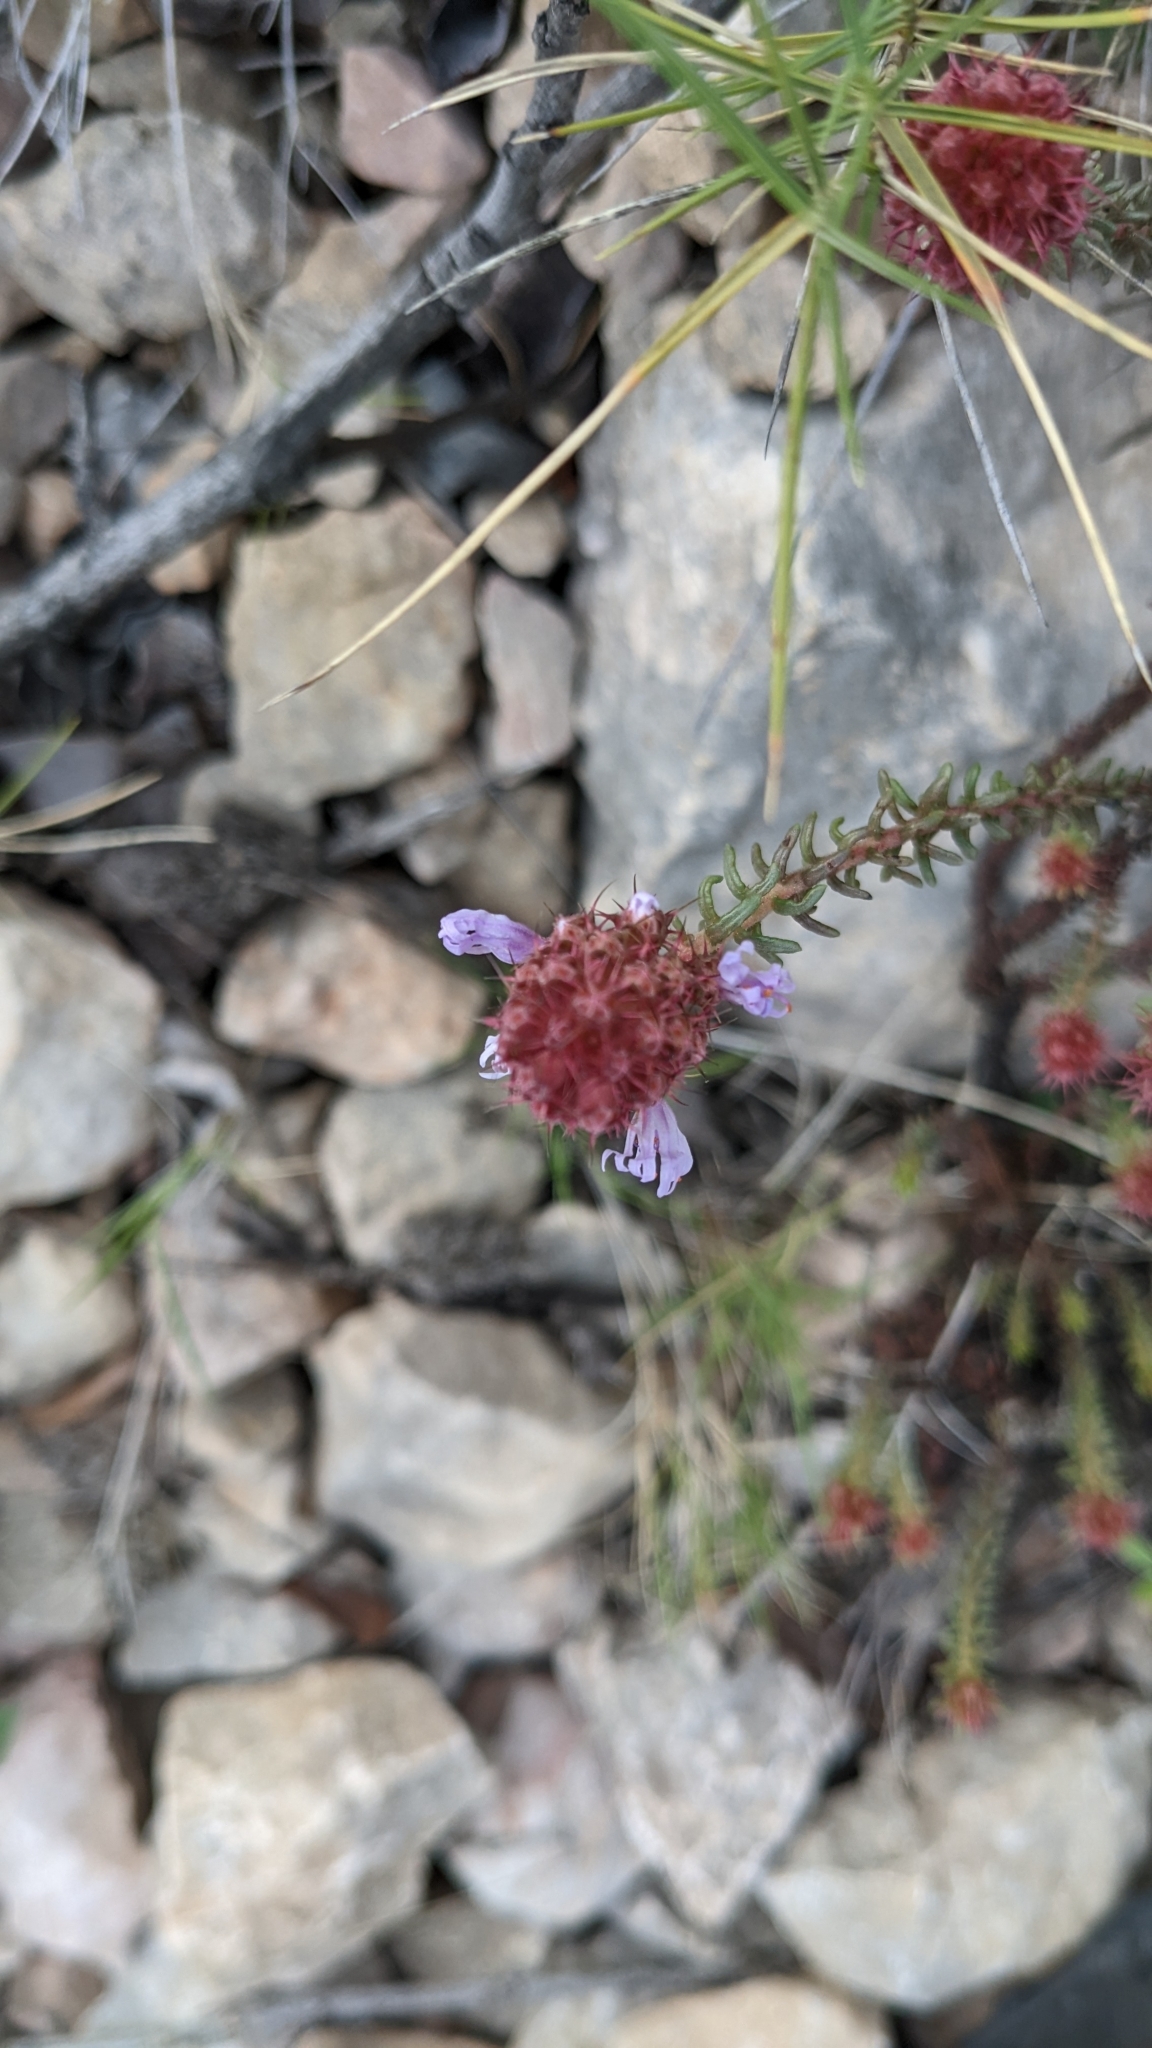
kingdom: Plantae
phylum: Tracheophyta
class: Magnoliopsida
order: Ericales
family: Primulaceae
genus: Coris
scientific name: Coris monspeliensis
